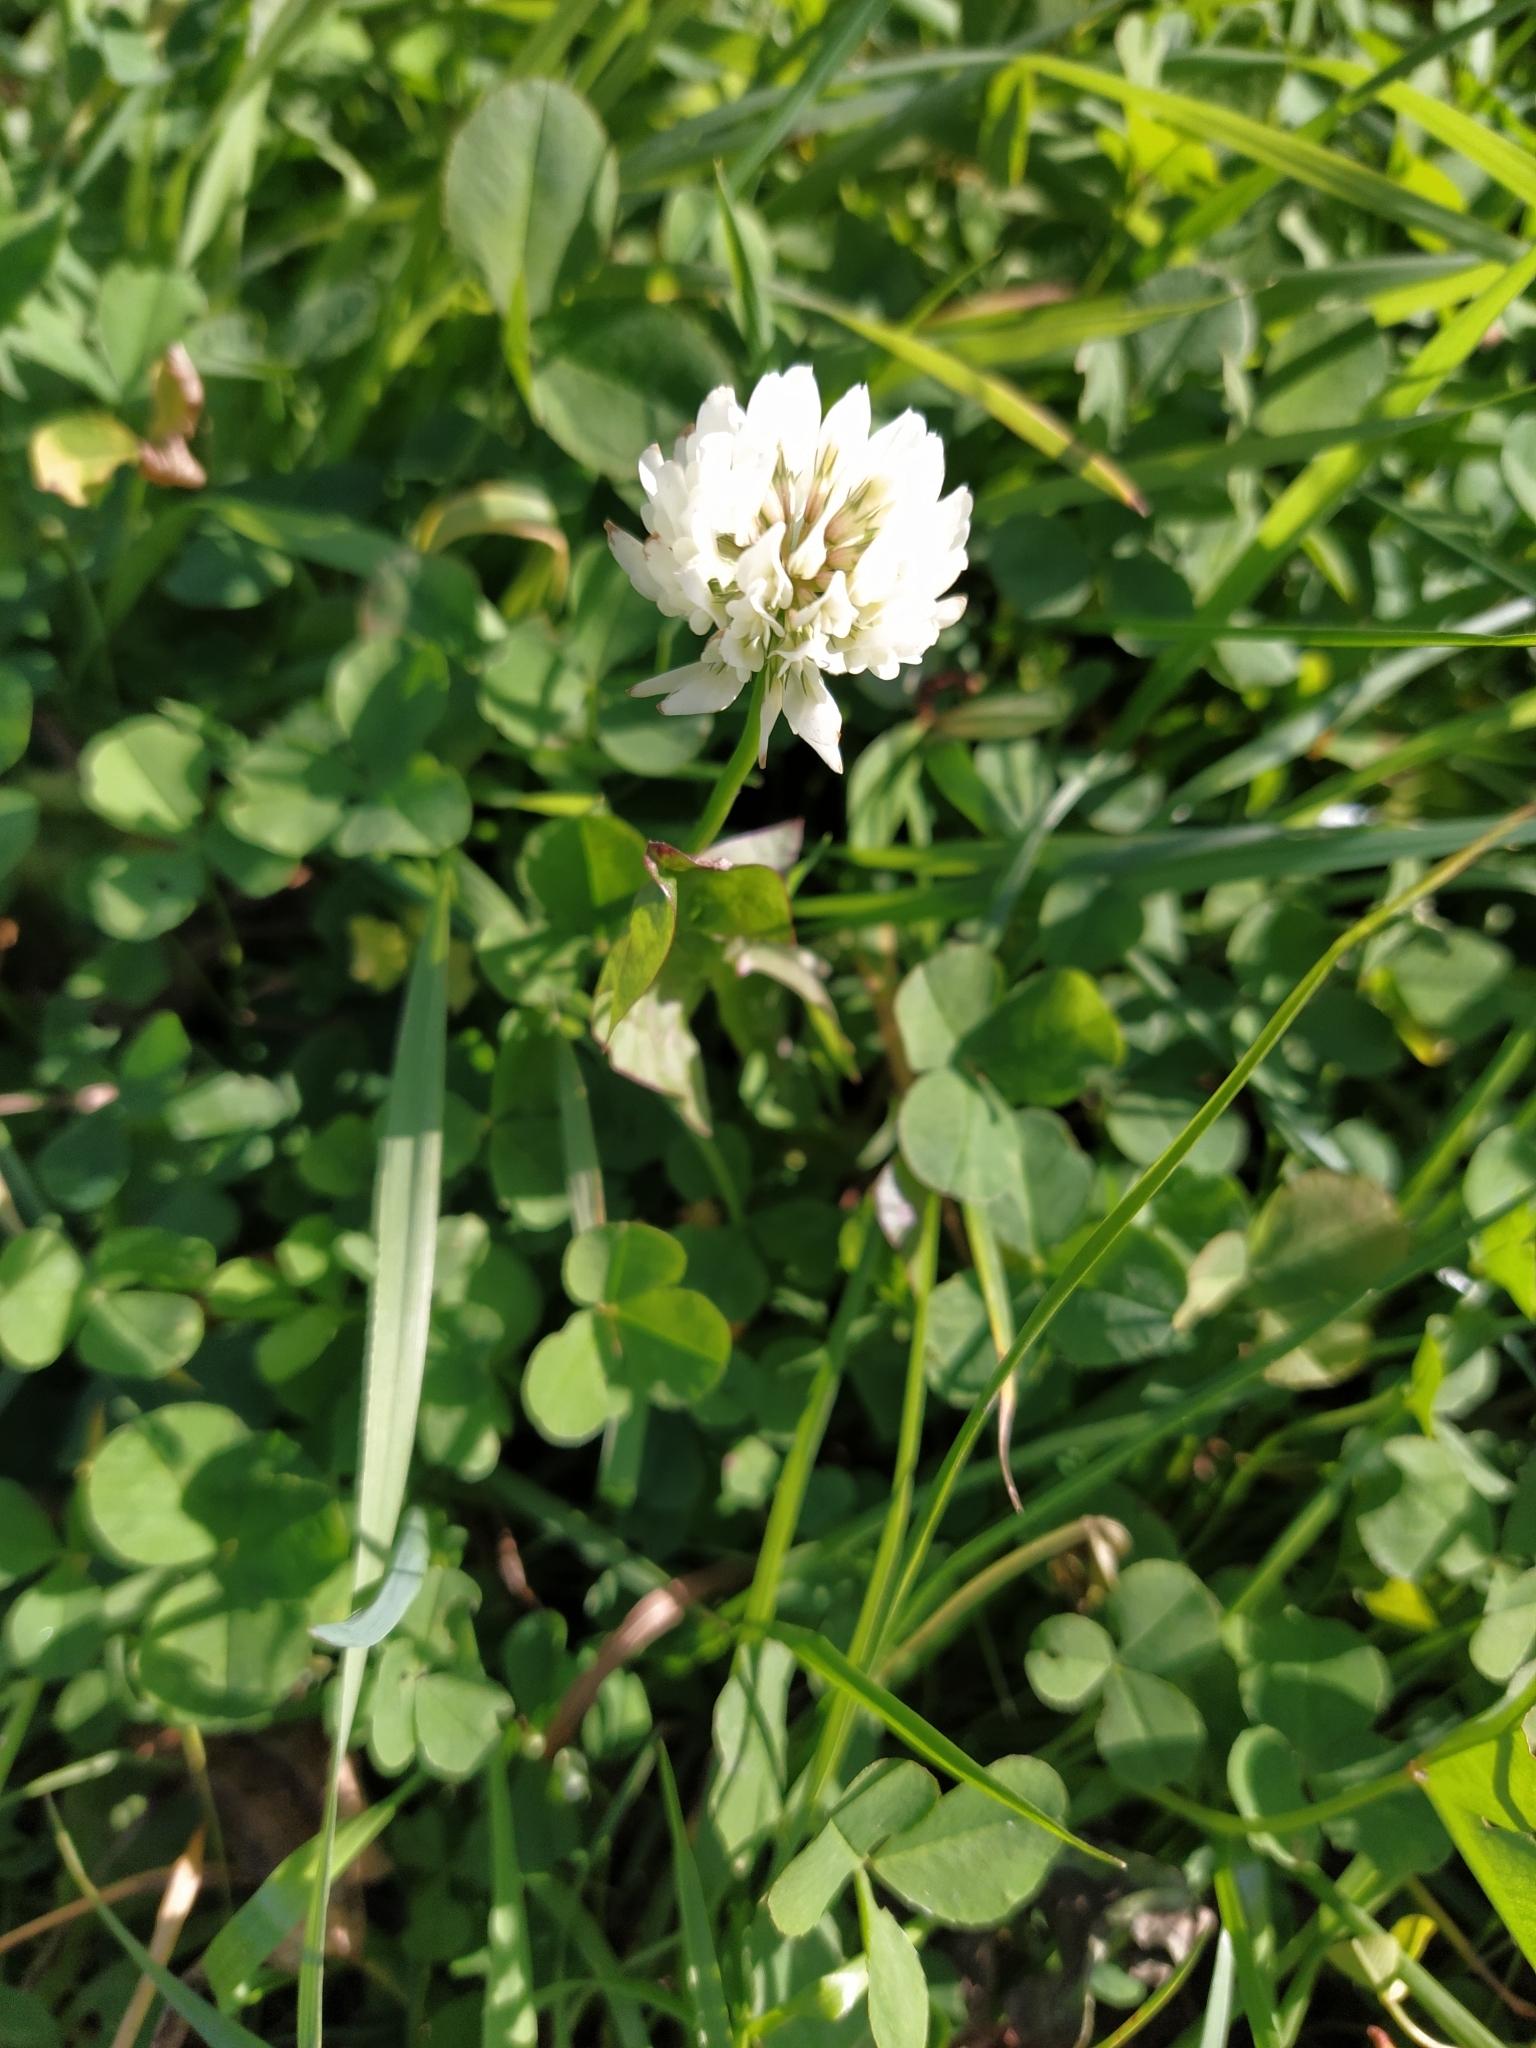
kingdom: Plantae
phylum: Tracheophyta
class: Magnoliopsida
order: Fabales
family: Fabaceae
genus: Trifolium
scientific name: Trifolium repens
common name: White clover
